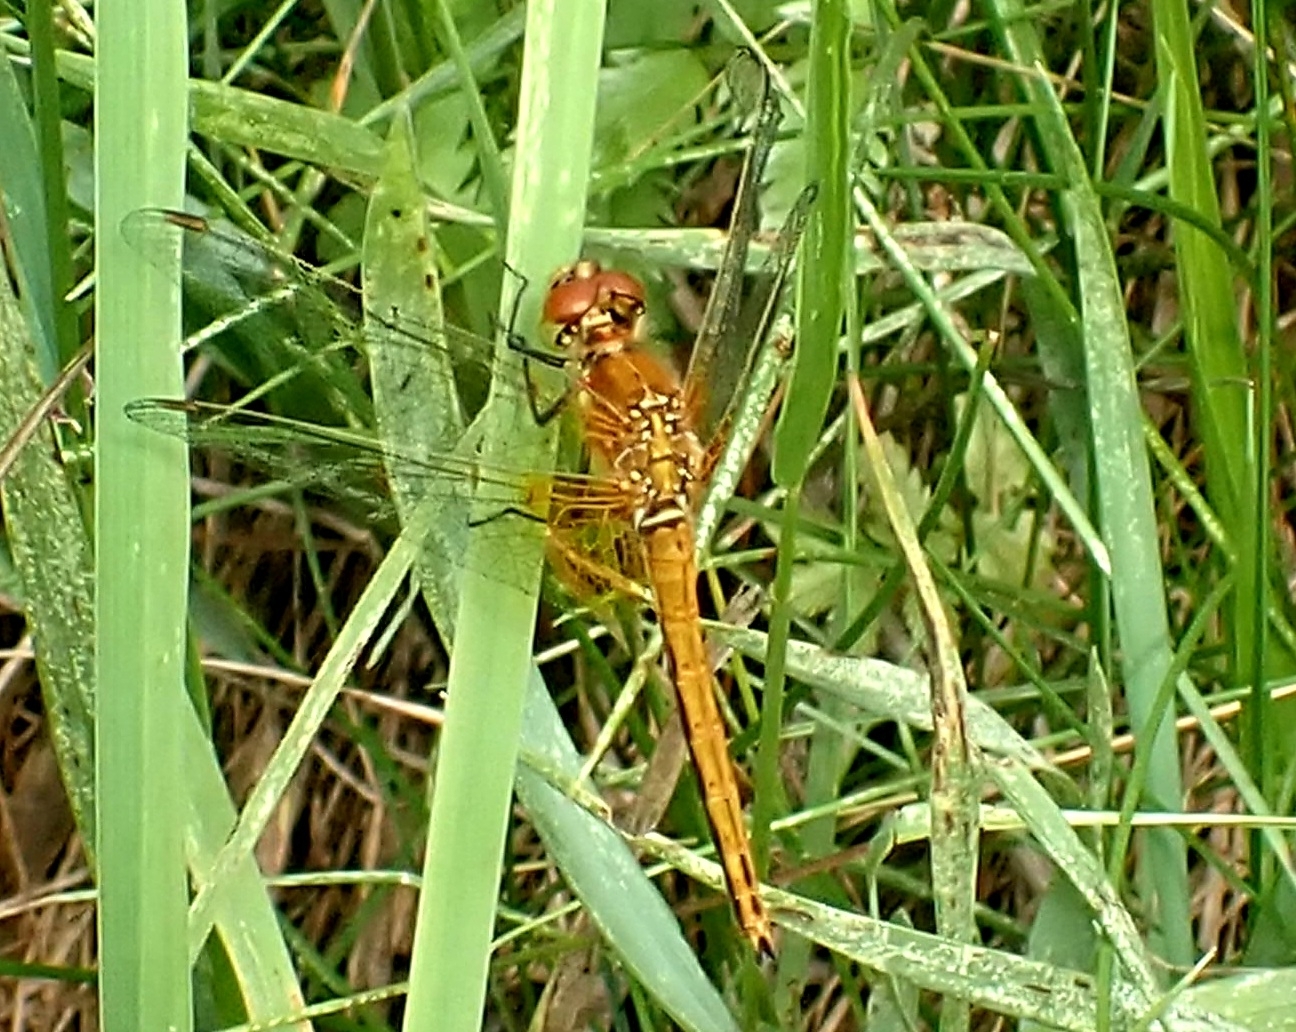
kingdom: Animalia
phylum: Arthropoda
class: Insecta
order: Odonata
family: Libellulidae
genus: Sympetrum
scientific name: Sympetrum flaveolum
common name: Yellow-winged darter
